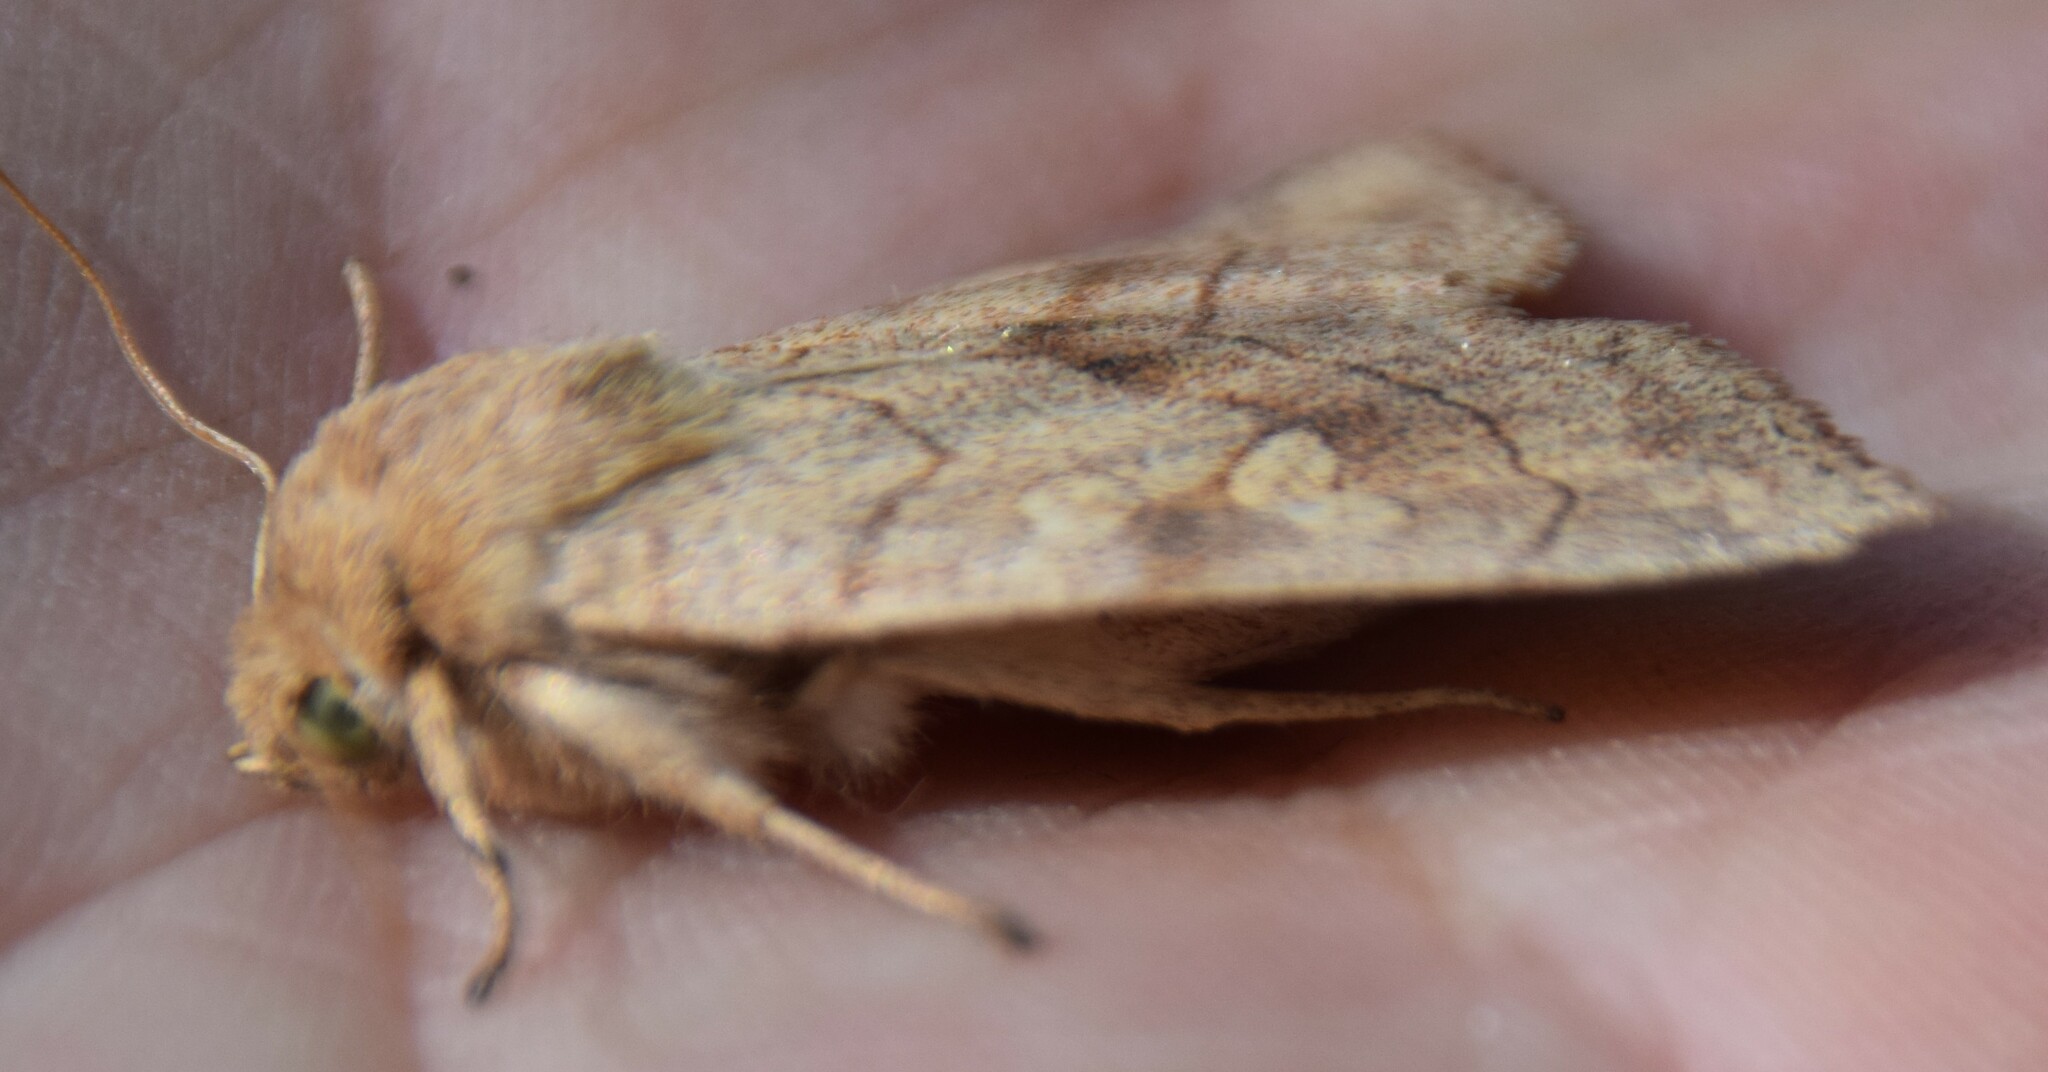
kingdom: Animalia
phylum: Arthropoda
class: Insecta
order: Lepidoptera
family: Noctuidae
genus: Enargia
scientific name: Enargia decolor
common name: Aspen twoleaf tier moth
